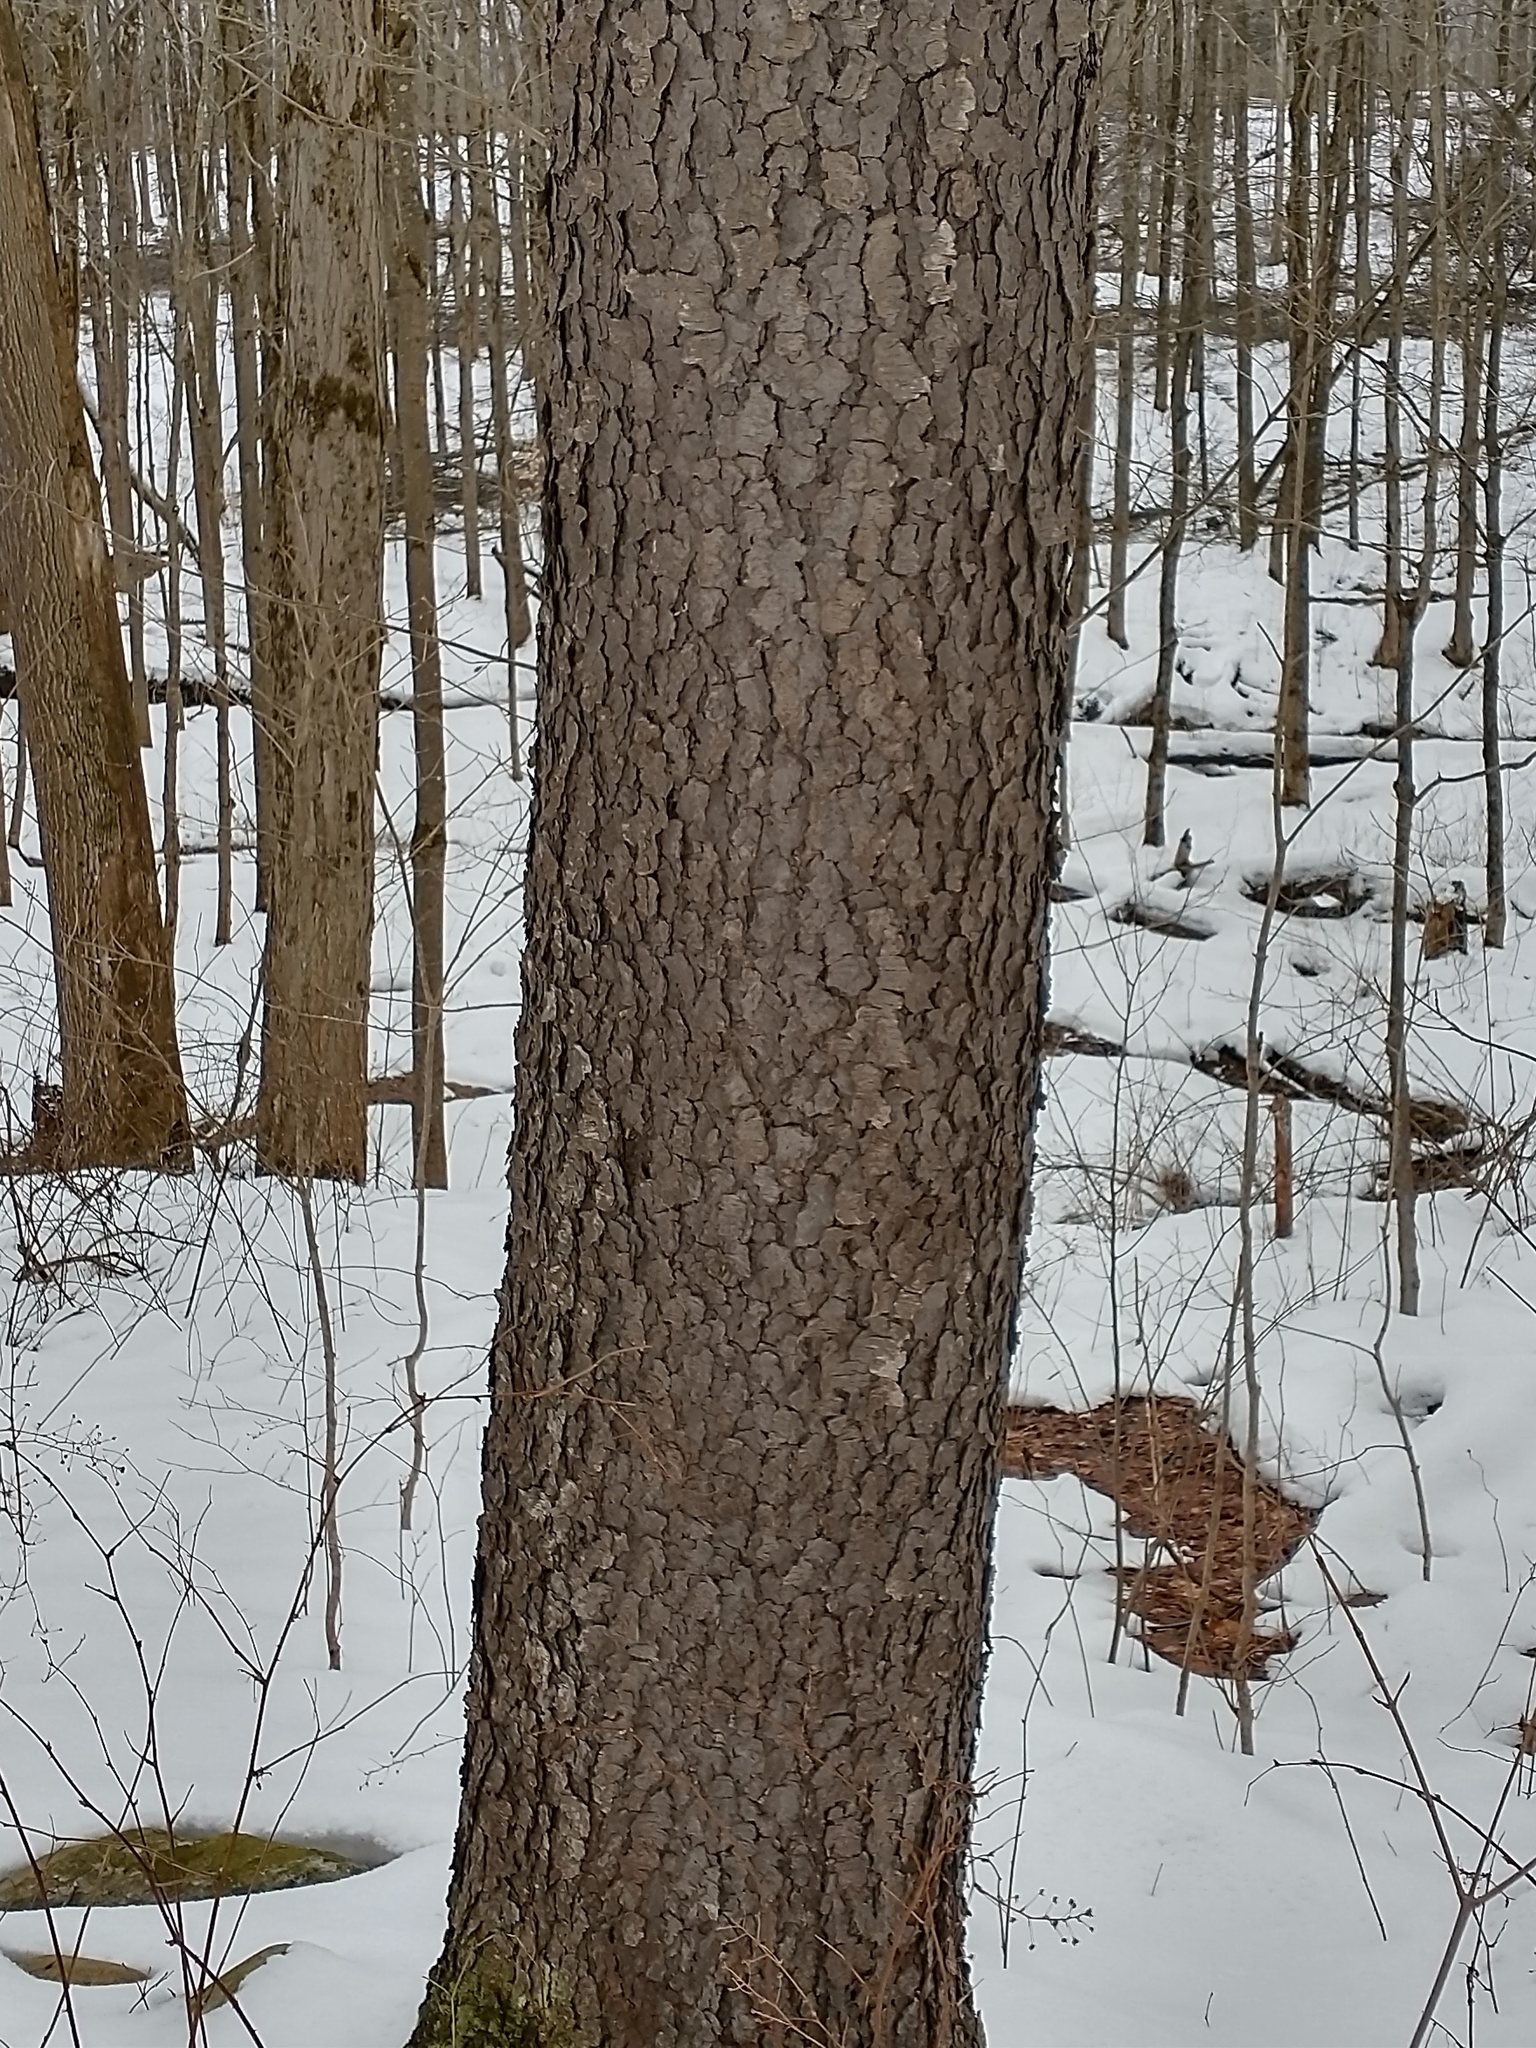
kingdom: Plantae
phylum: Tracheophyta
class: Magnoliopsida
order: Rosales
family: Rosaceae
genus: Prunus
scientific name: Prunus serotina
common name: Black cherry
